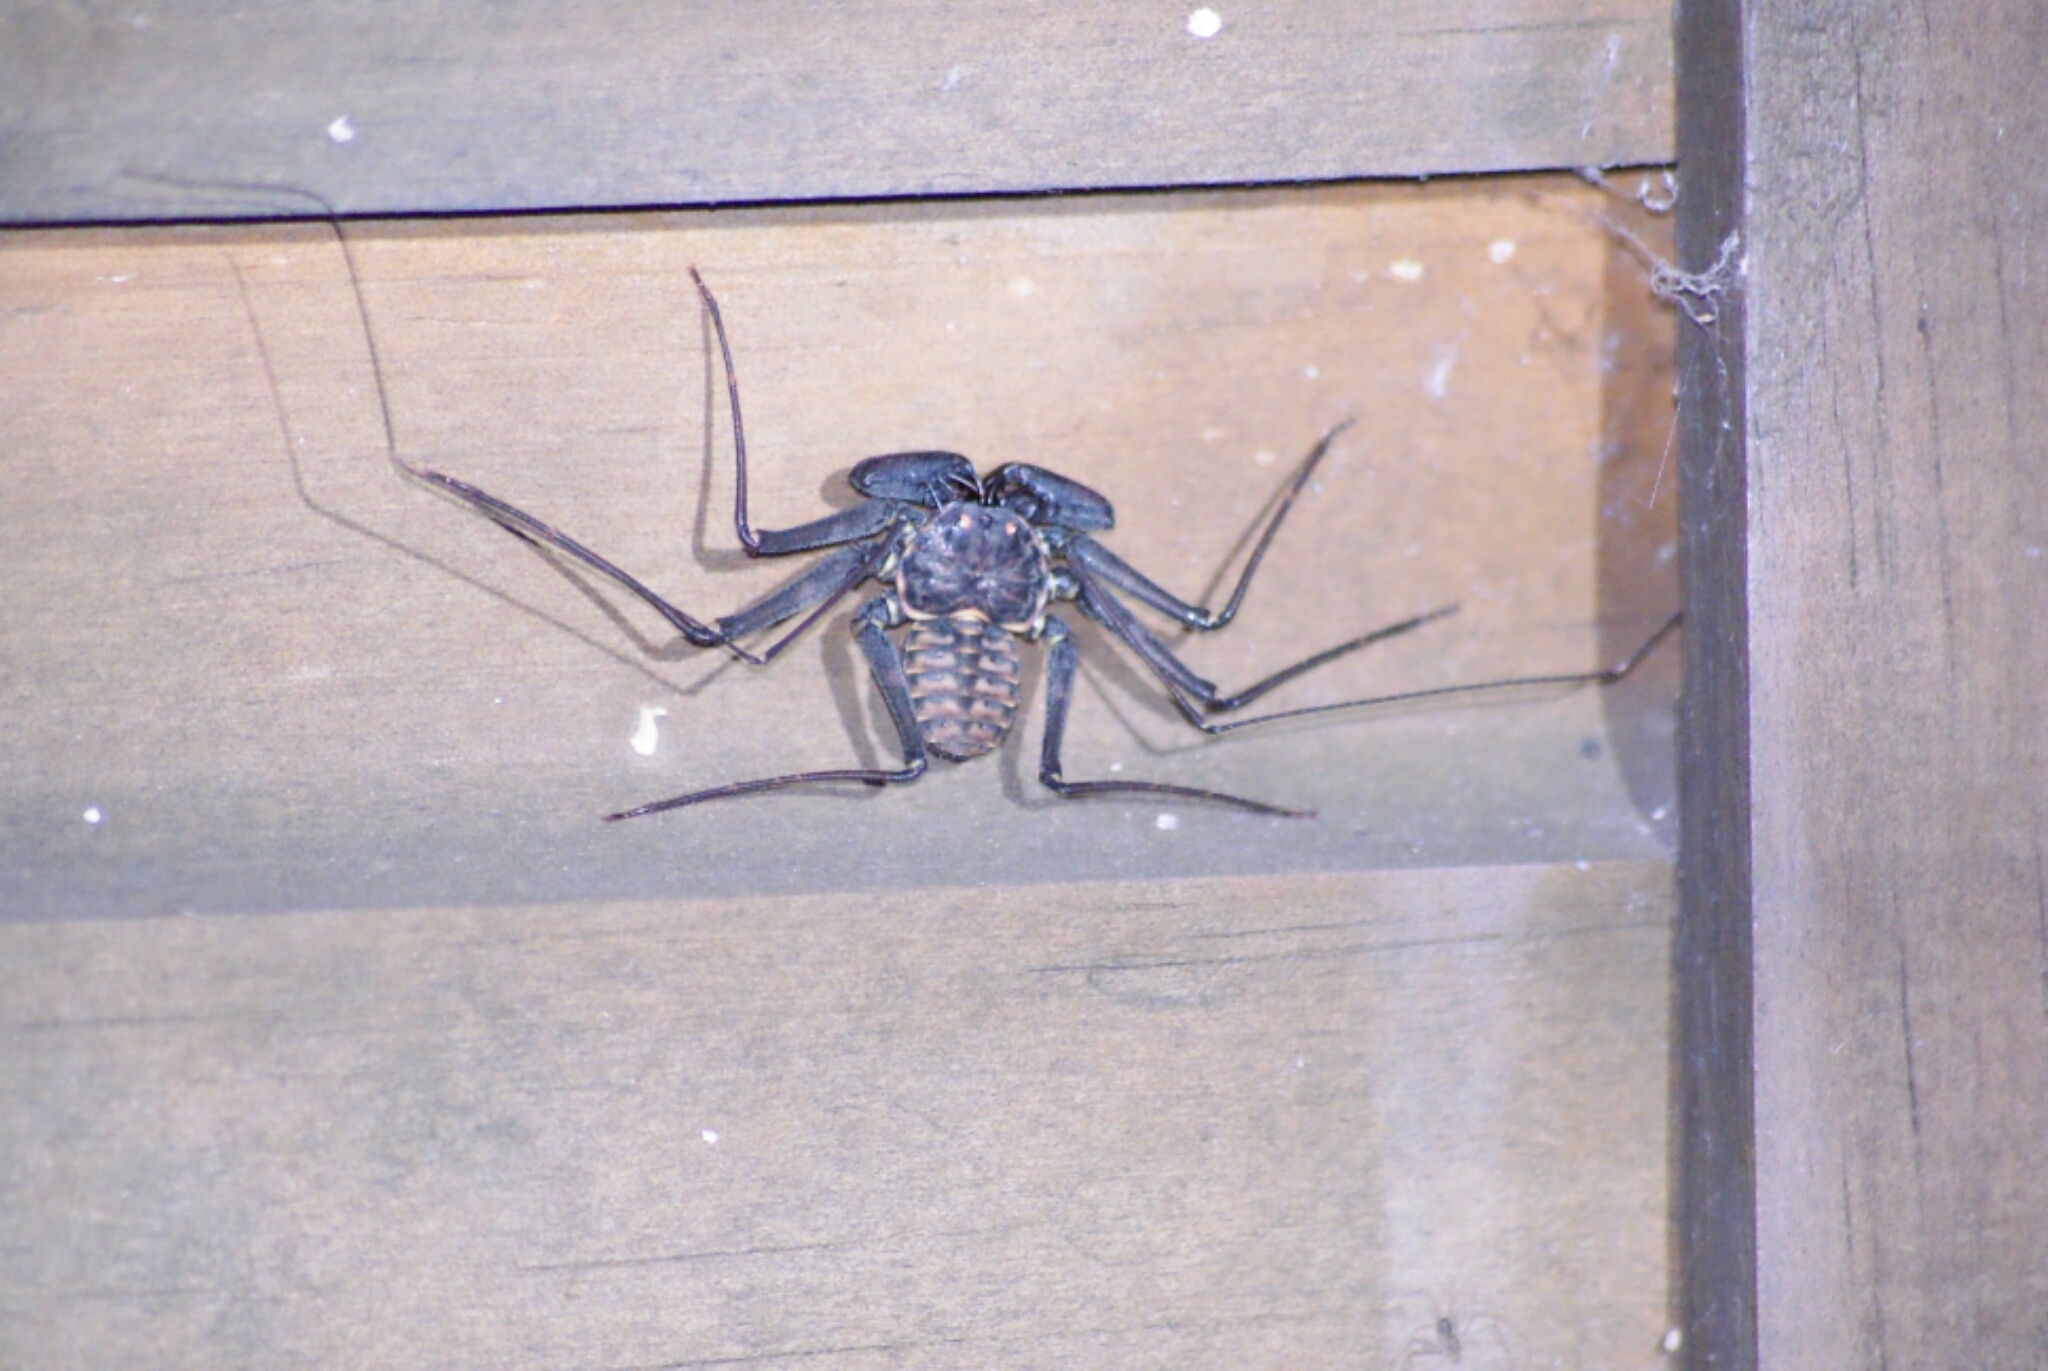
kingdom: Animalia
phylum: Arthropoda
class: Arachnida
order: Amblypygi
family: Phrynidae
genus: Phrynus
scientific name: Phrynus whitei
